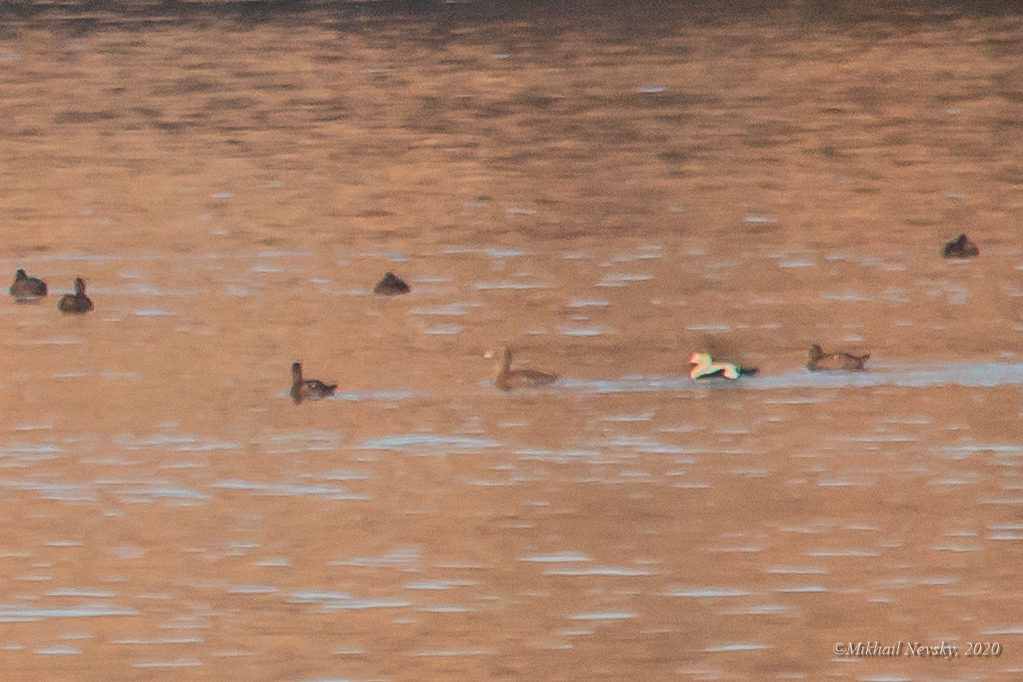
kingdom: Animalia
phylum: Chordata
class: Aves
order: Anseriformes
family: Anatidae
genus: Somateria
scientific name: Somateria spectabilis
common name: King eider
